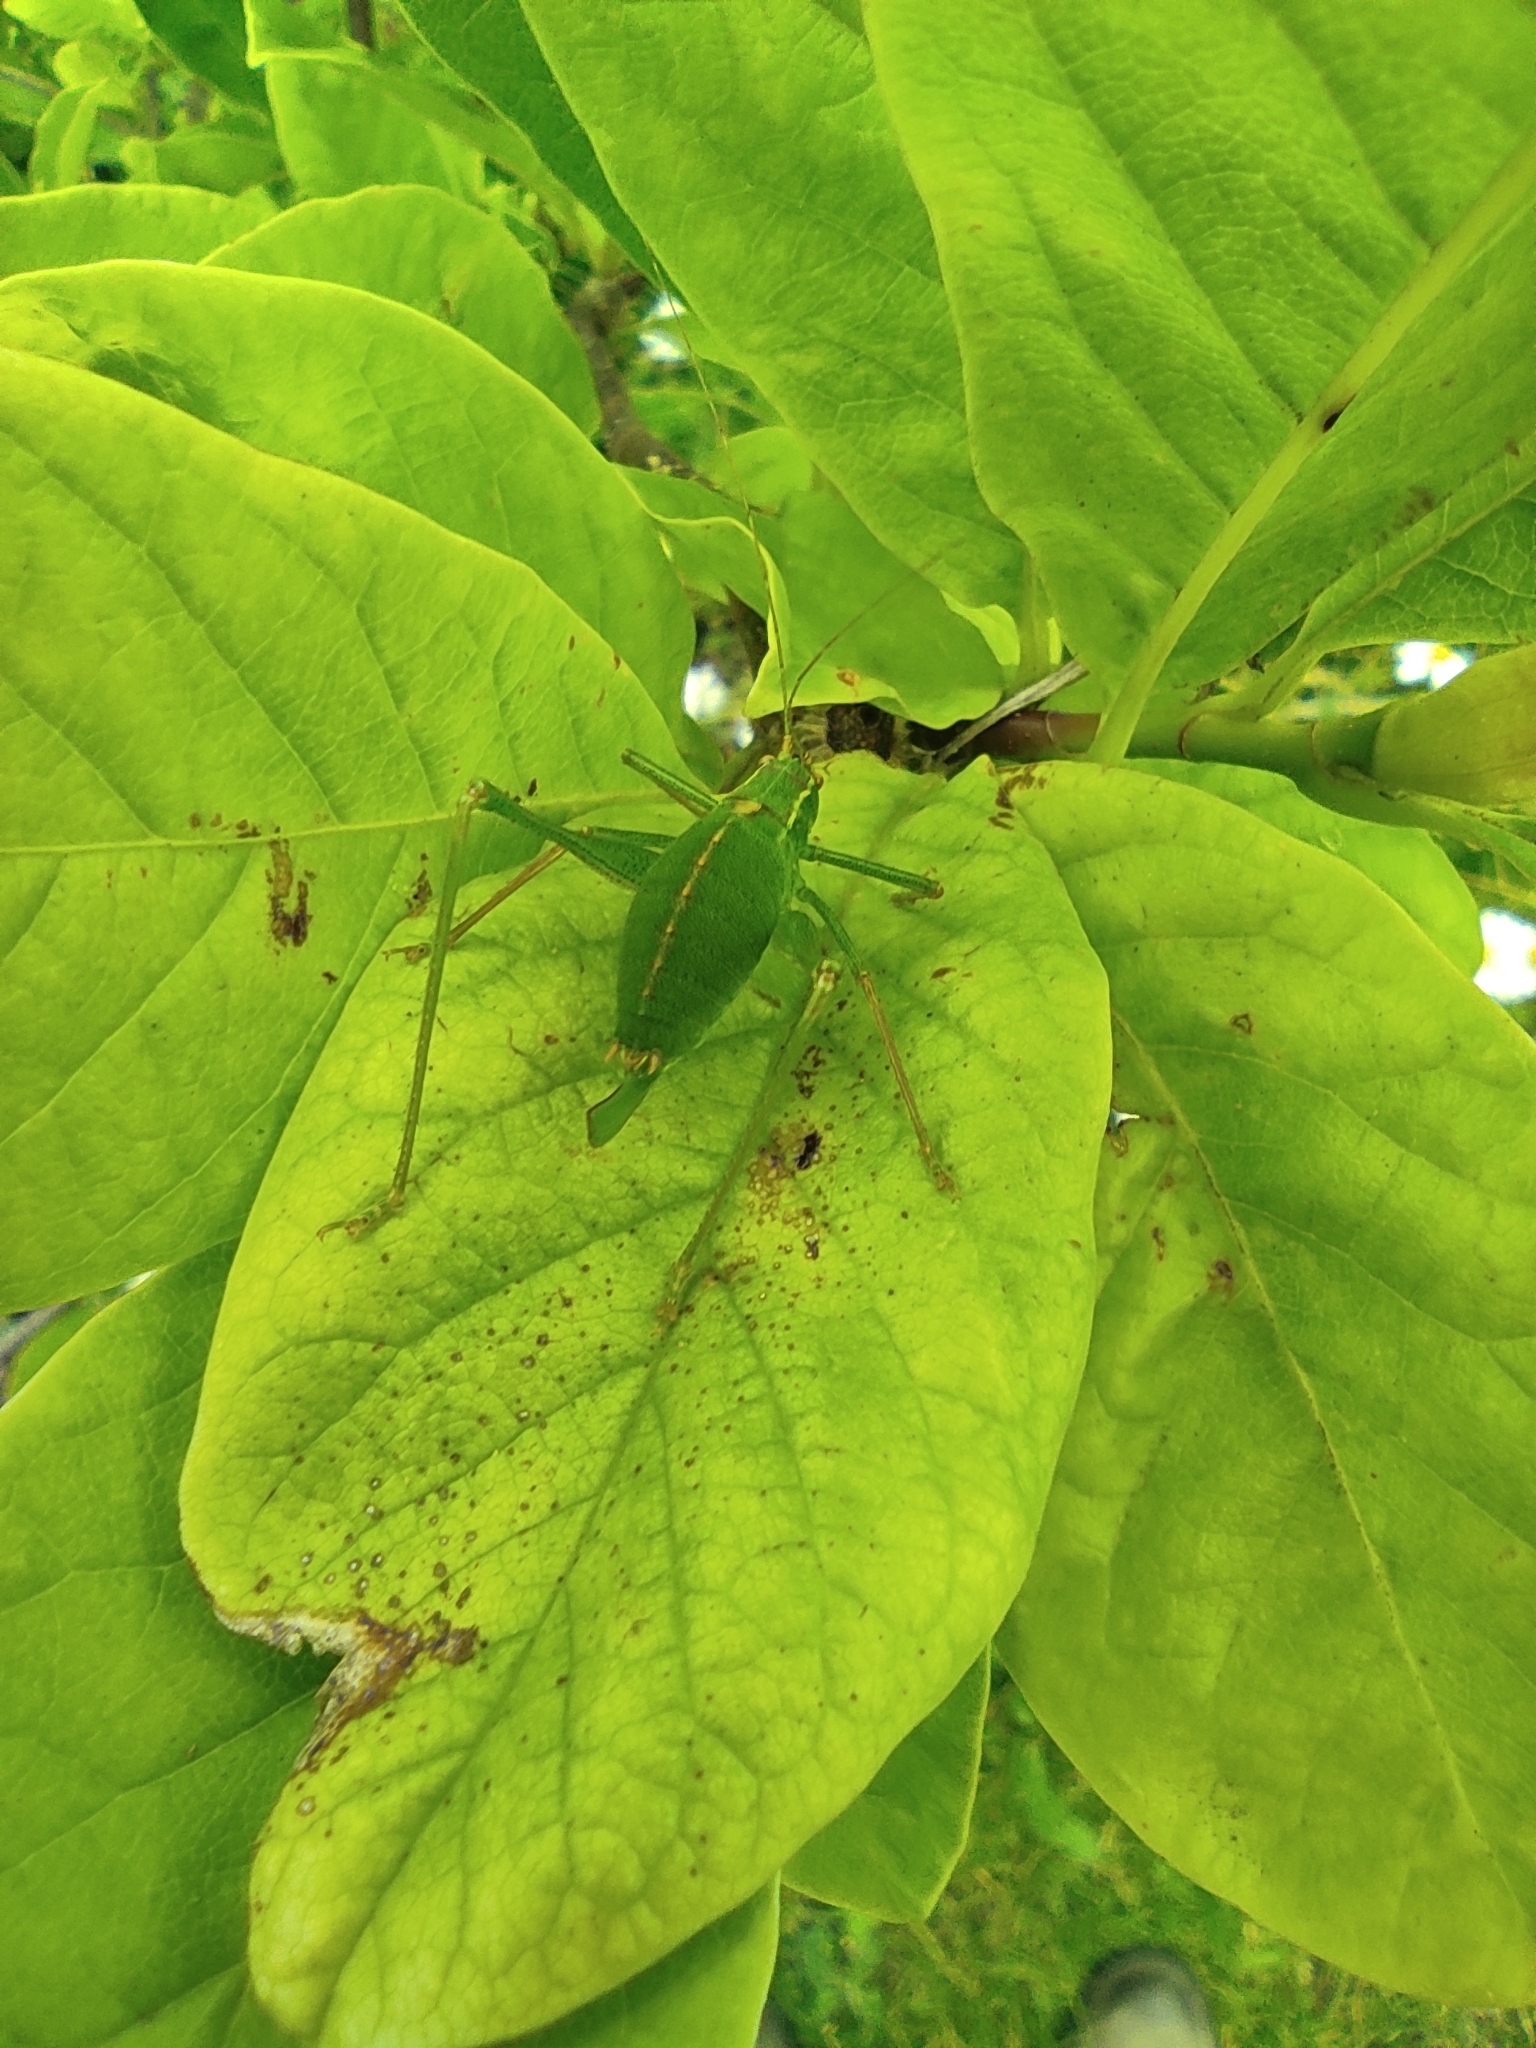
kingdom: Animalia
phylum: Arthropoda
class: Insecta
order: Orthoptera
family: Tettigoniidae
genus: Leptophyes
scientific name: Leptophyes punctatissima
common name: Speckled bush-cricket
